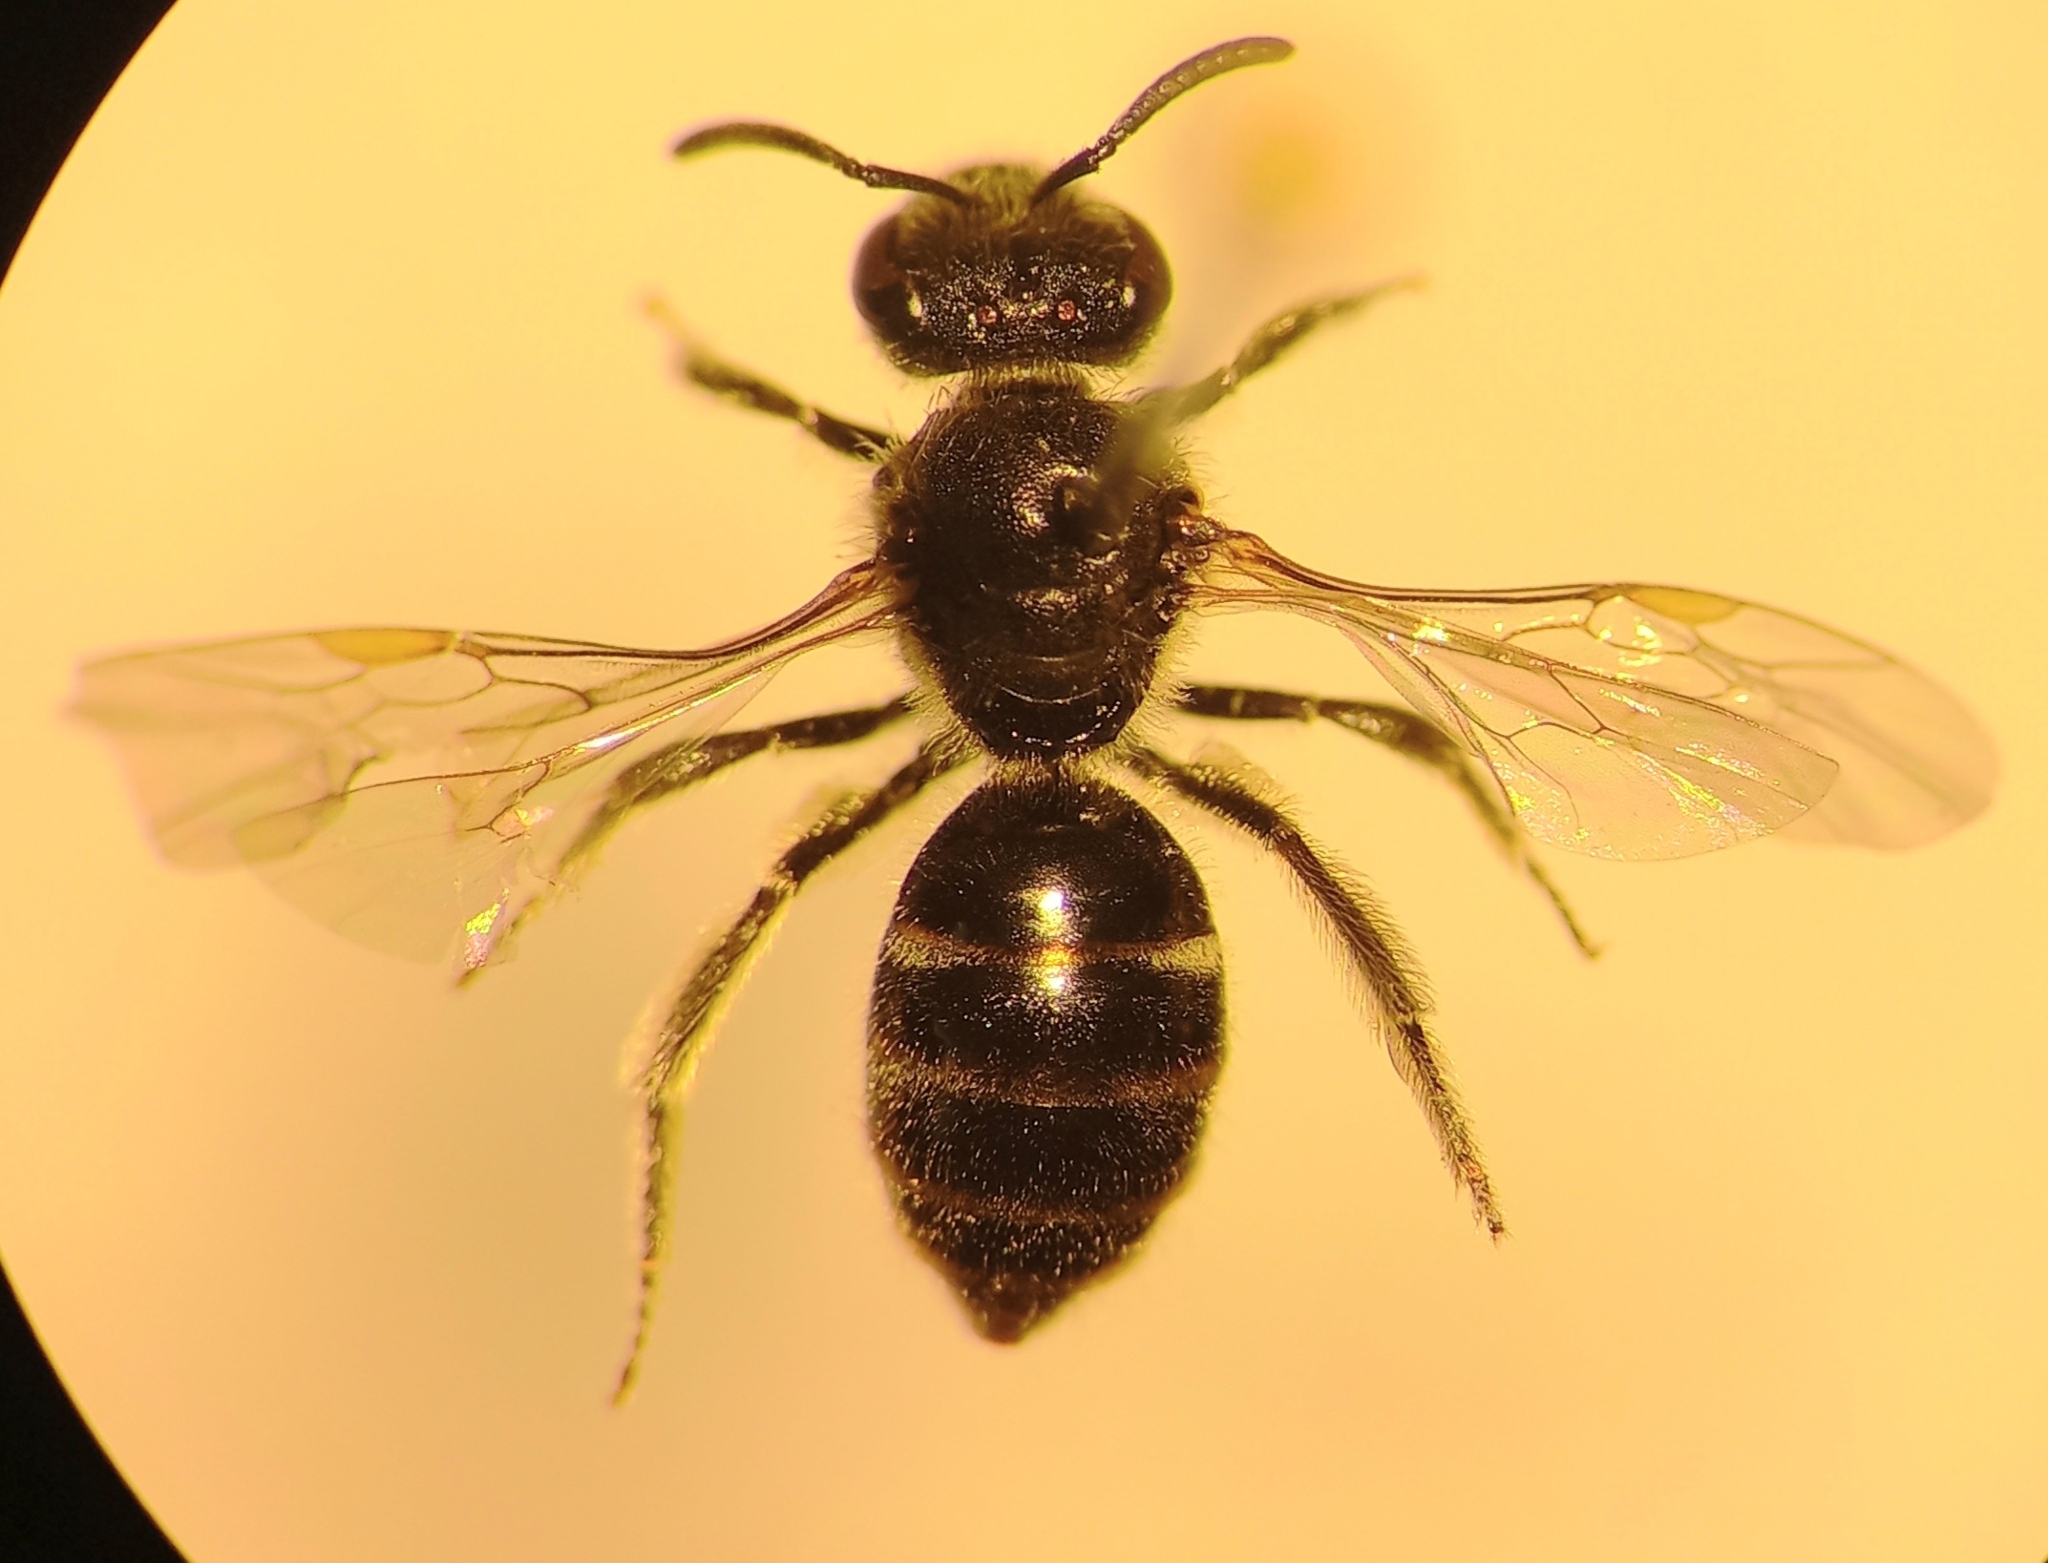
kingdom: Animalia
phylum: Arthropoda
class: Insecta
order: Hymenoptera
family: Halictidae
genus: Lasioglossum
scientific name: Lasioglossum laticeps
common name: Broad-faced furrow bee
